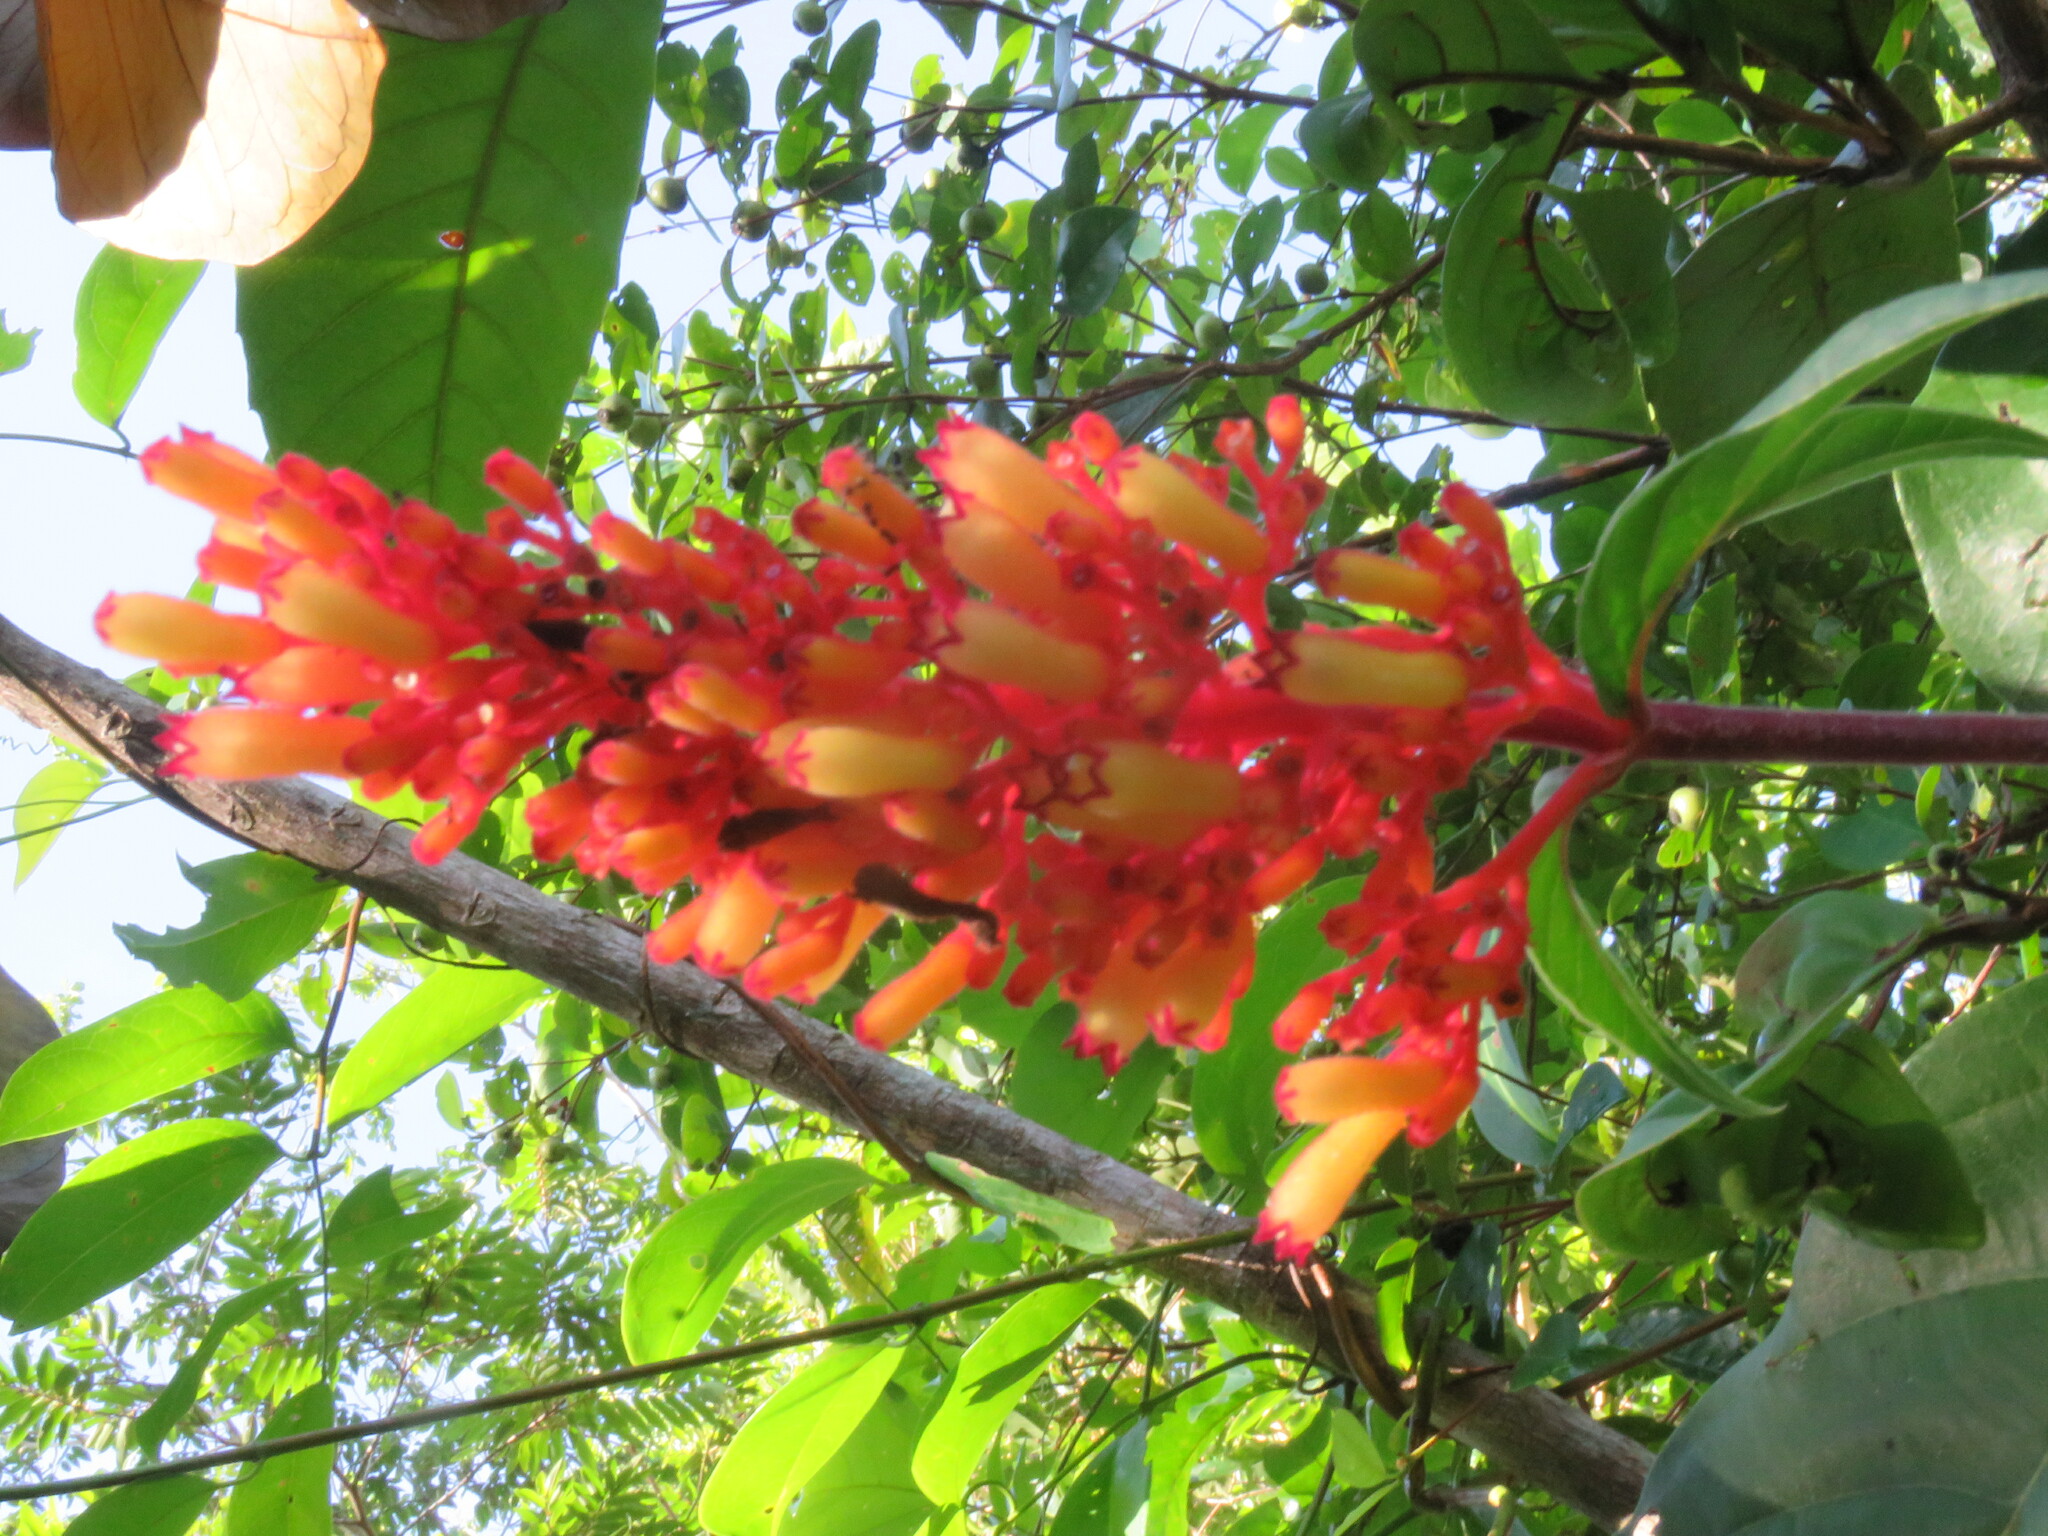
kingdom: Plantae
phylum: Tracheophyta
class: Magnoliopsida
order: Gentianales
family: Rubiaceae
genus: Palicourea
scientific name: Palicourea triphylla
